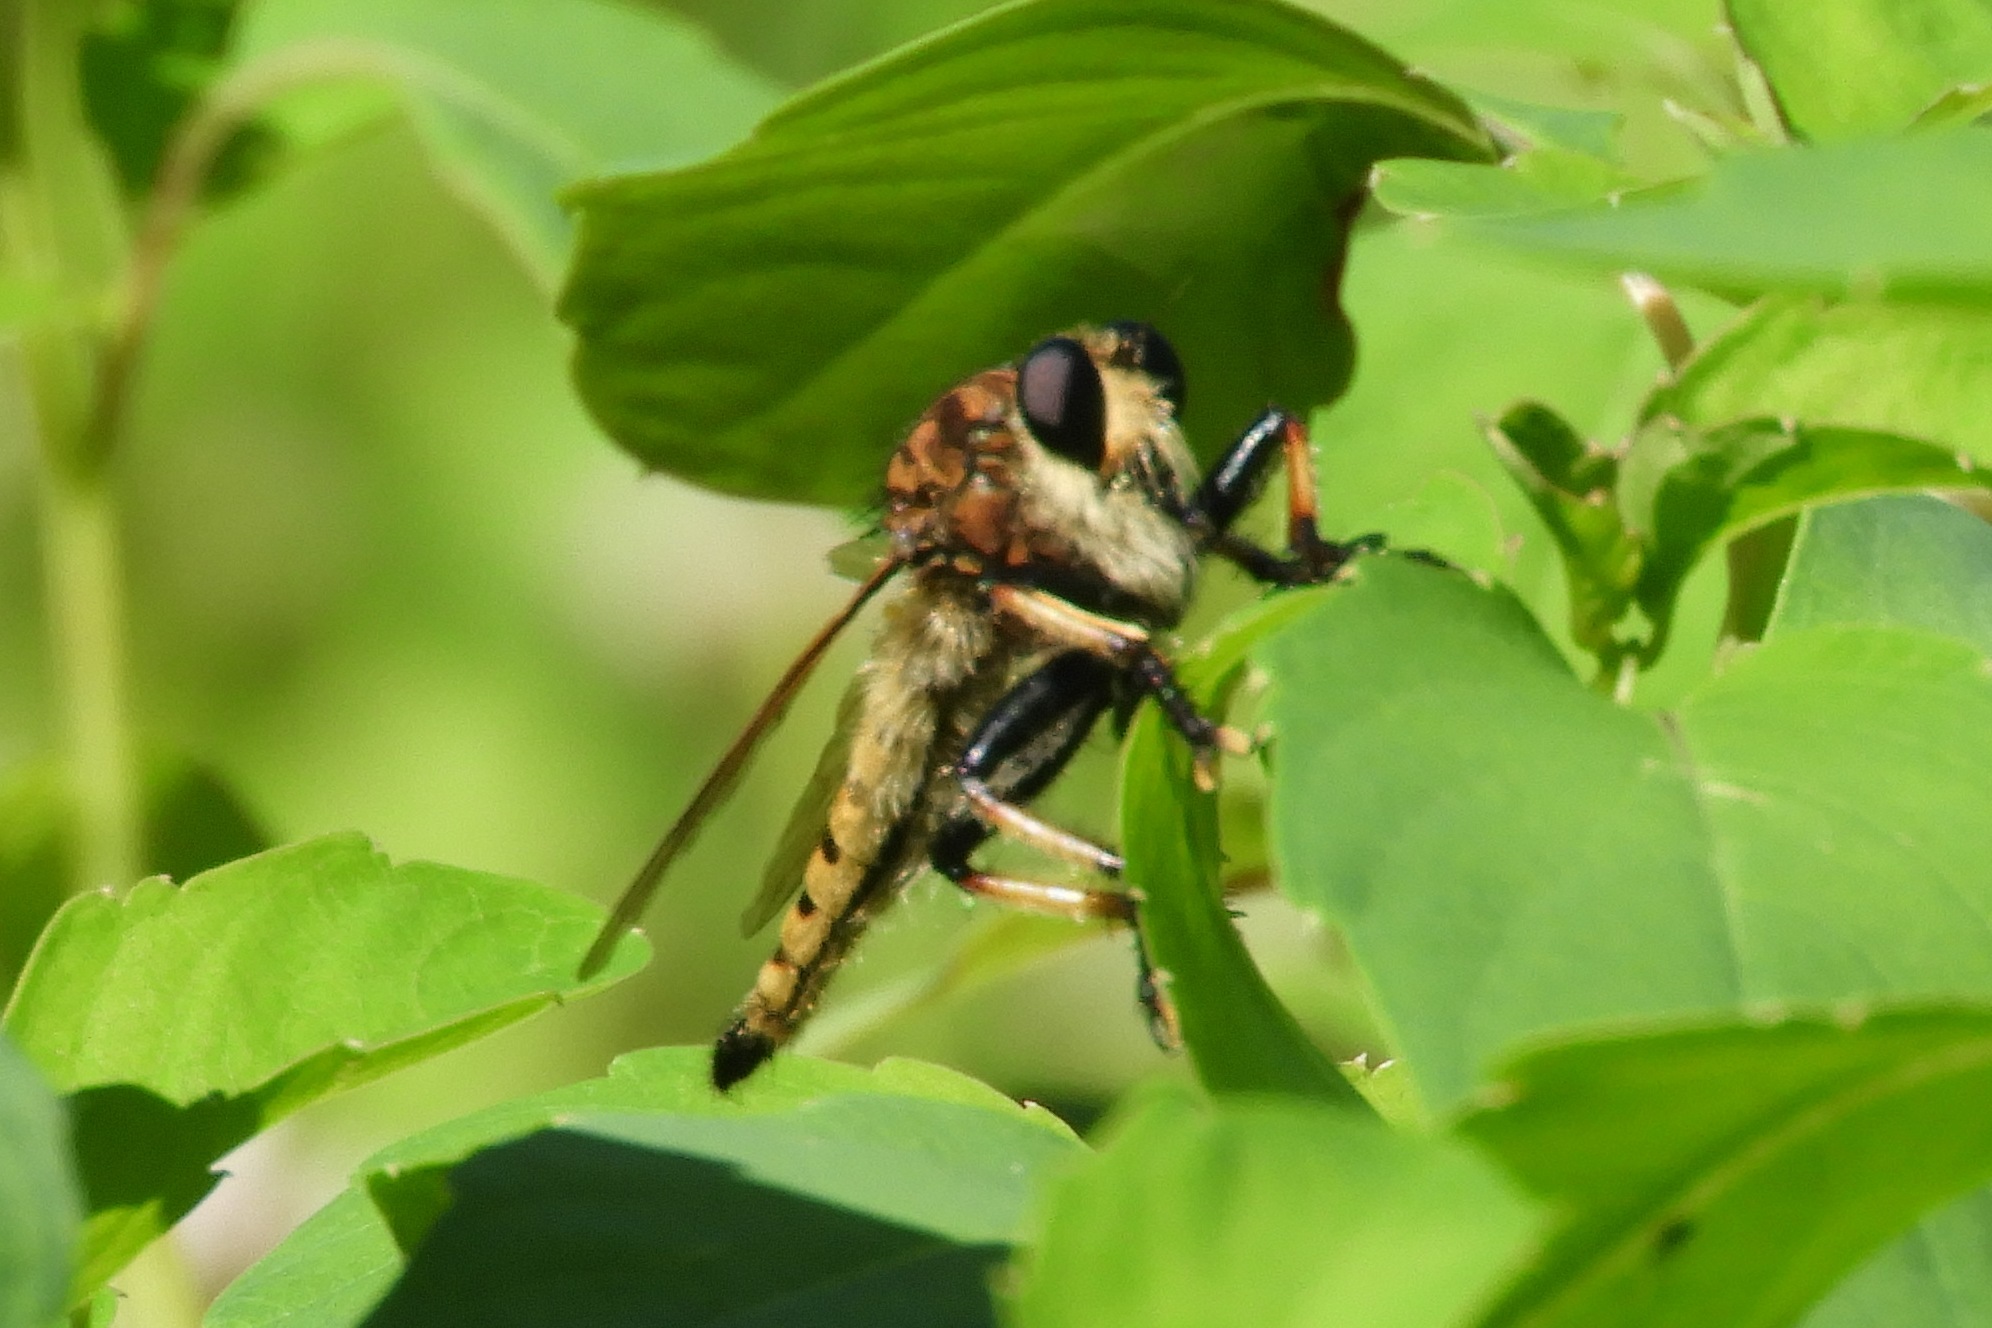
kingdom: Animalia
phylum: Arthropoda
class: Insecta
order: Diptera
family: Asilidae
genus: Promachus
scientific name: Promachus rufipes
